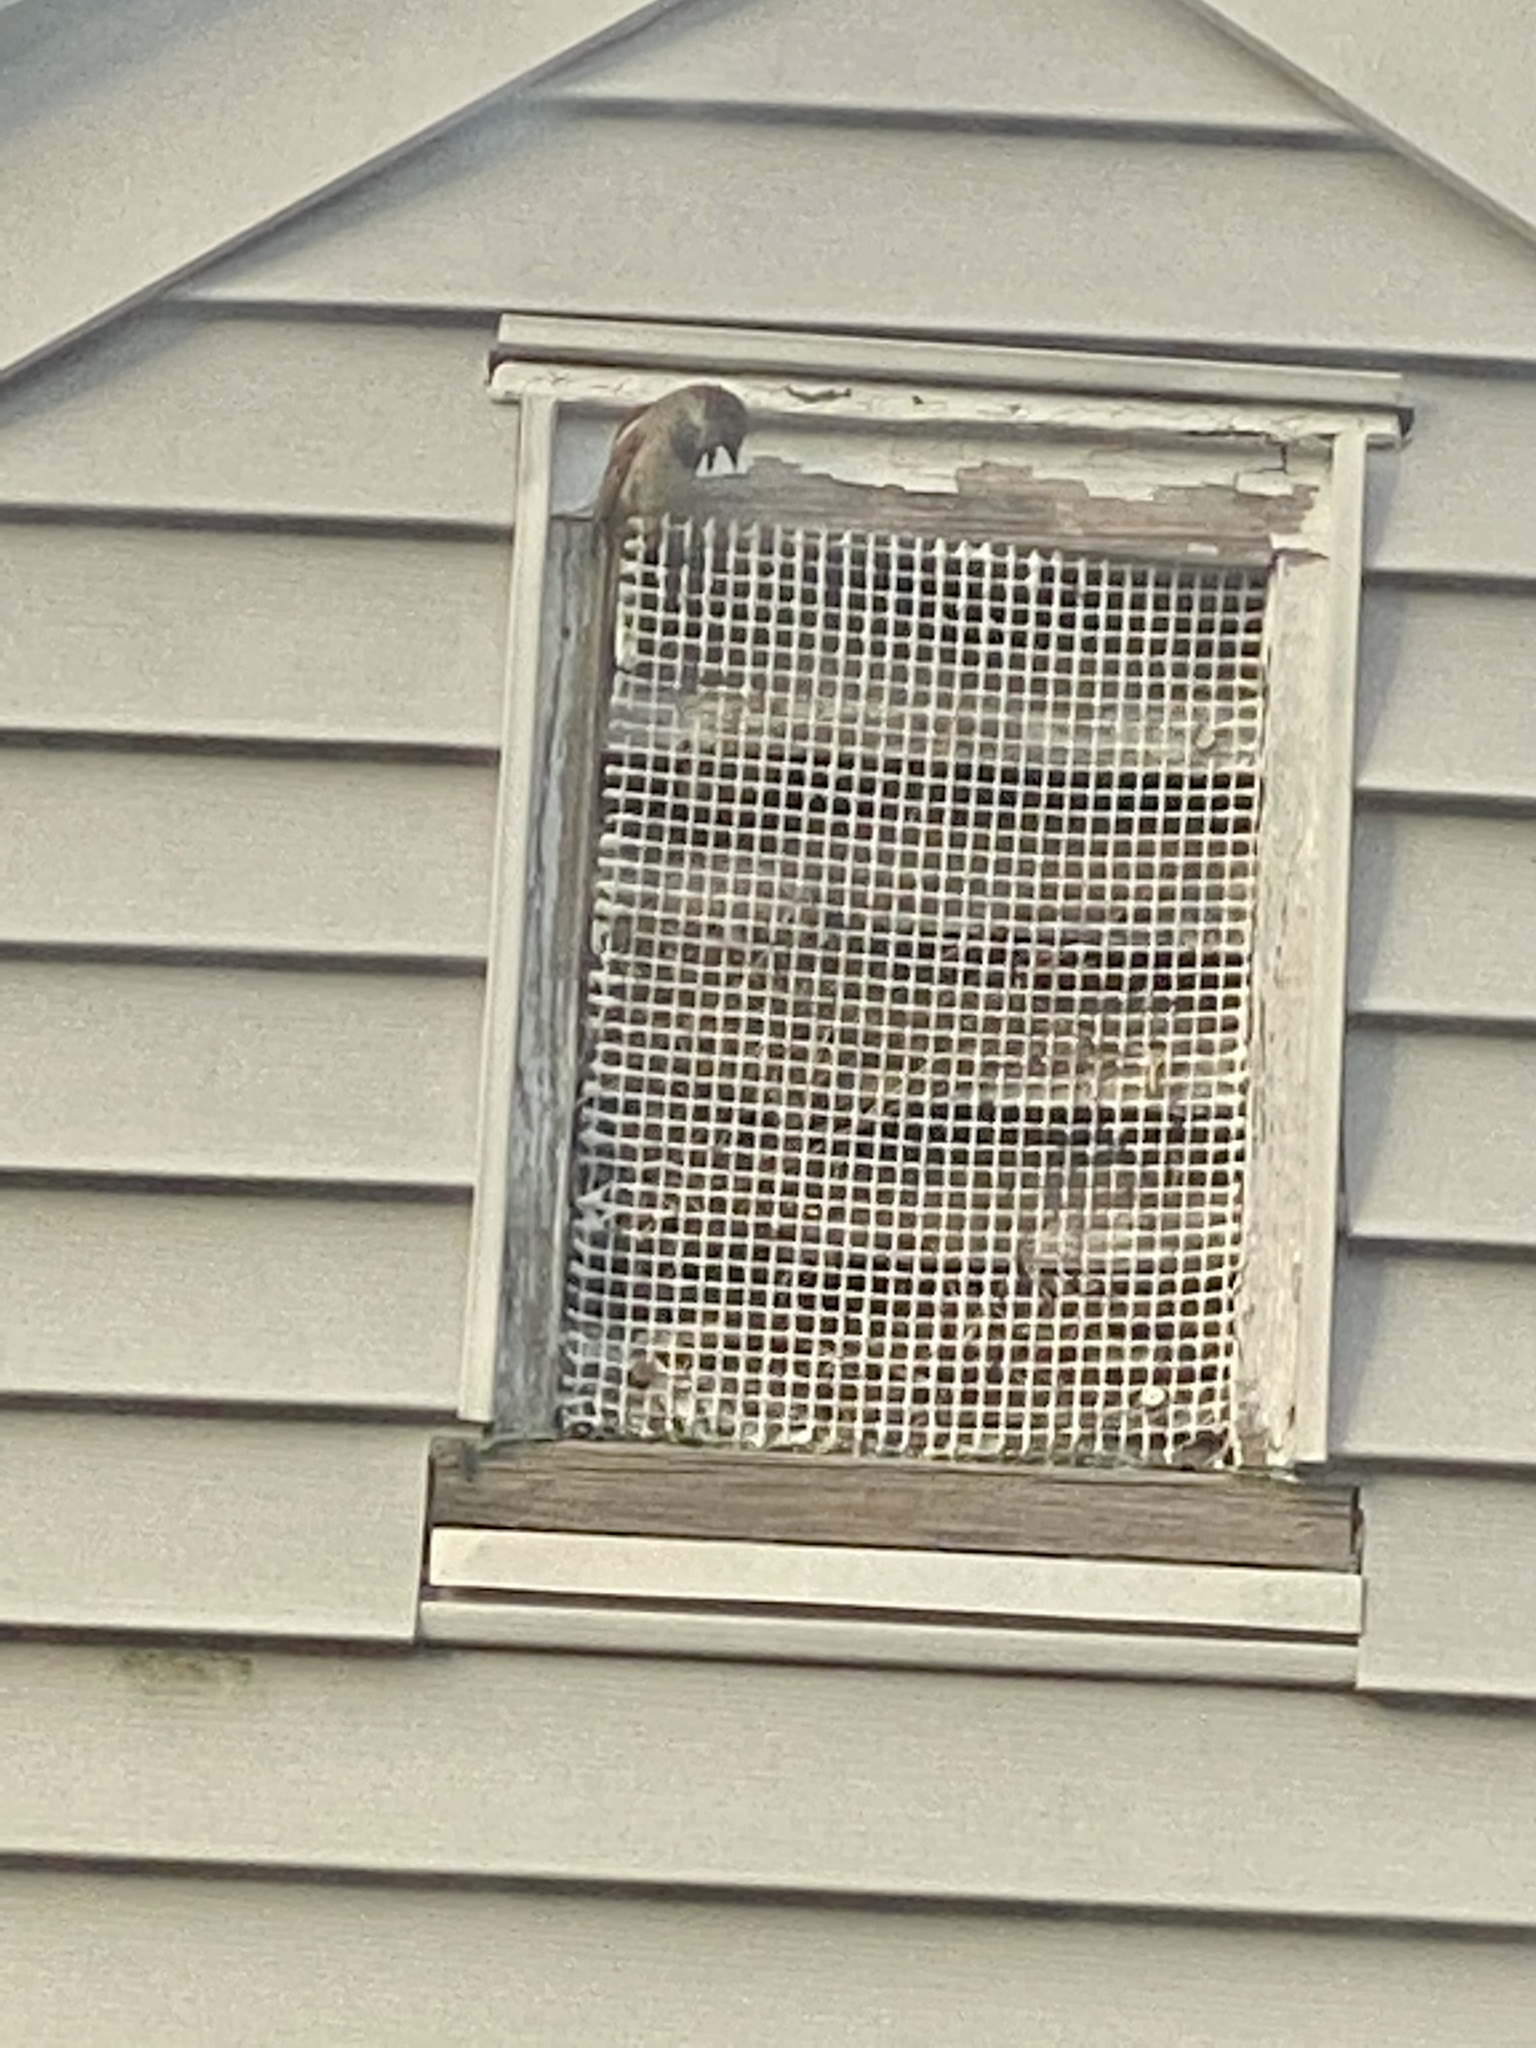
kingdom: Animalia
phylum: Chordata
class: Aves
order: Passeriformes
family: Passeridae
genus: Passer
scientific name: Passer domesticus
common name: House sparrow
